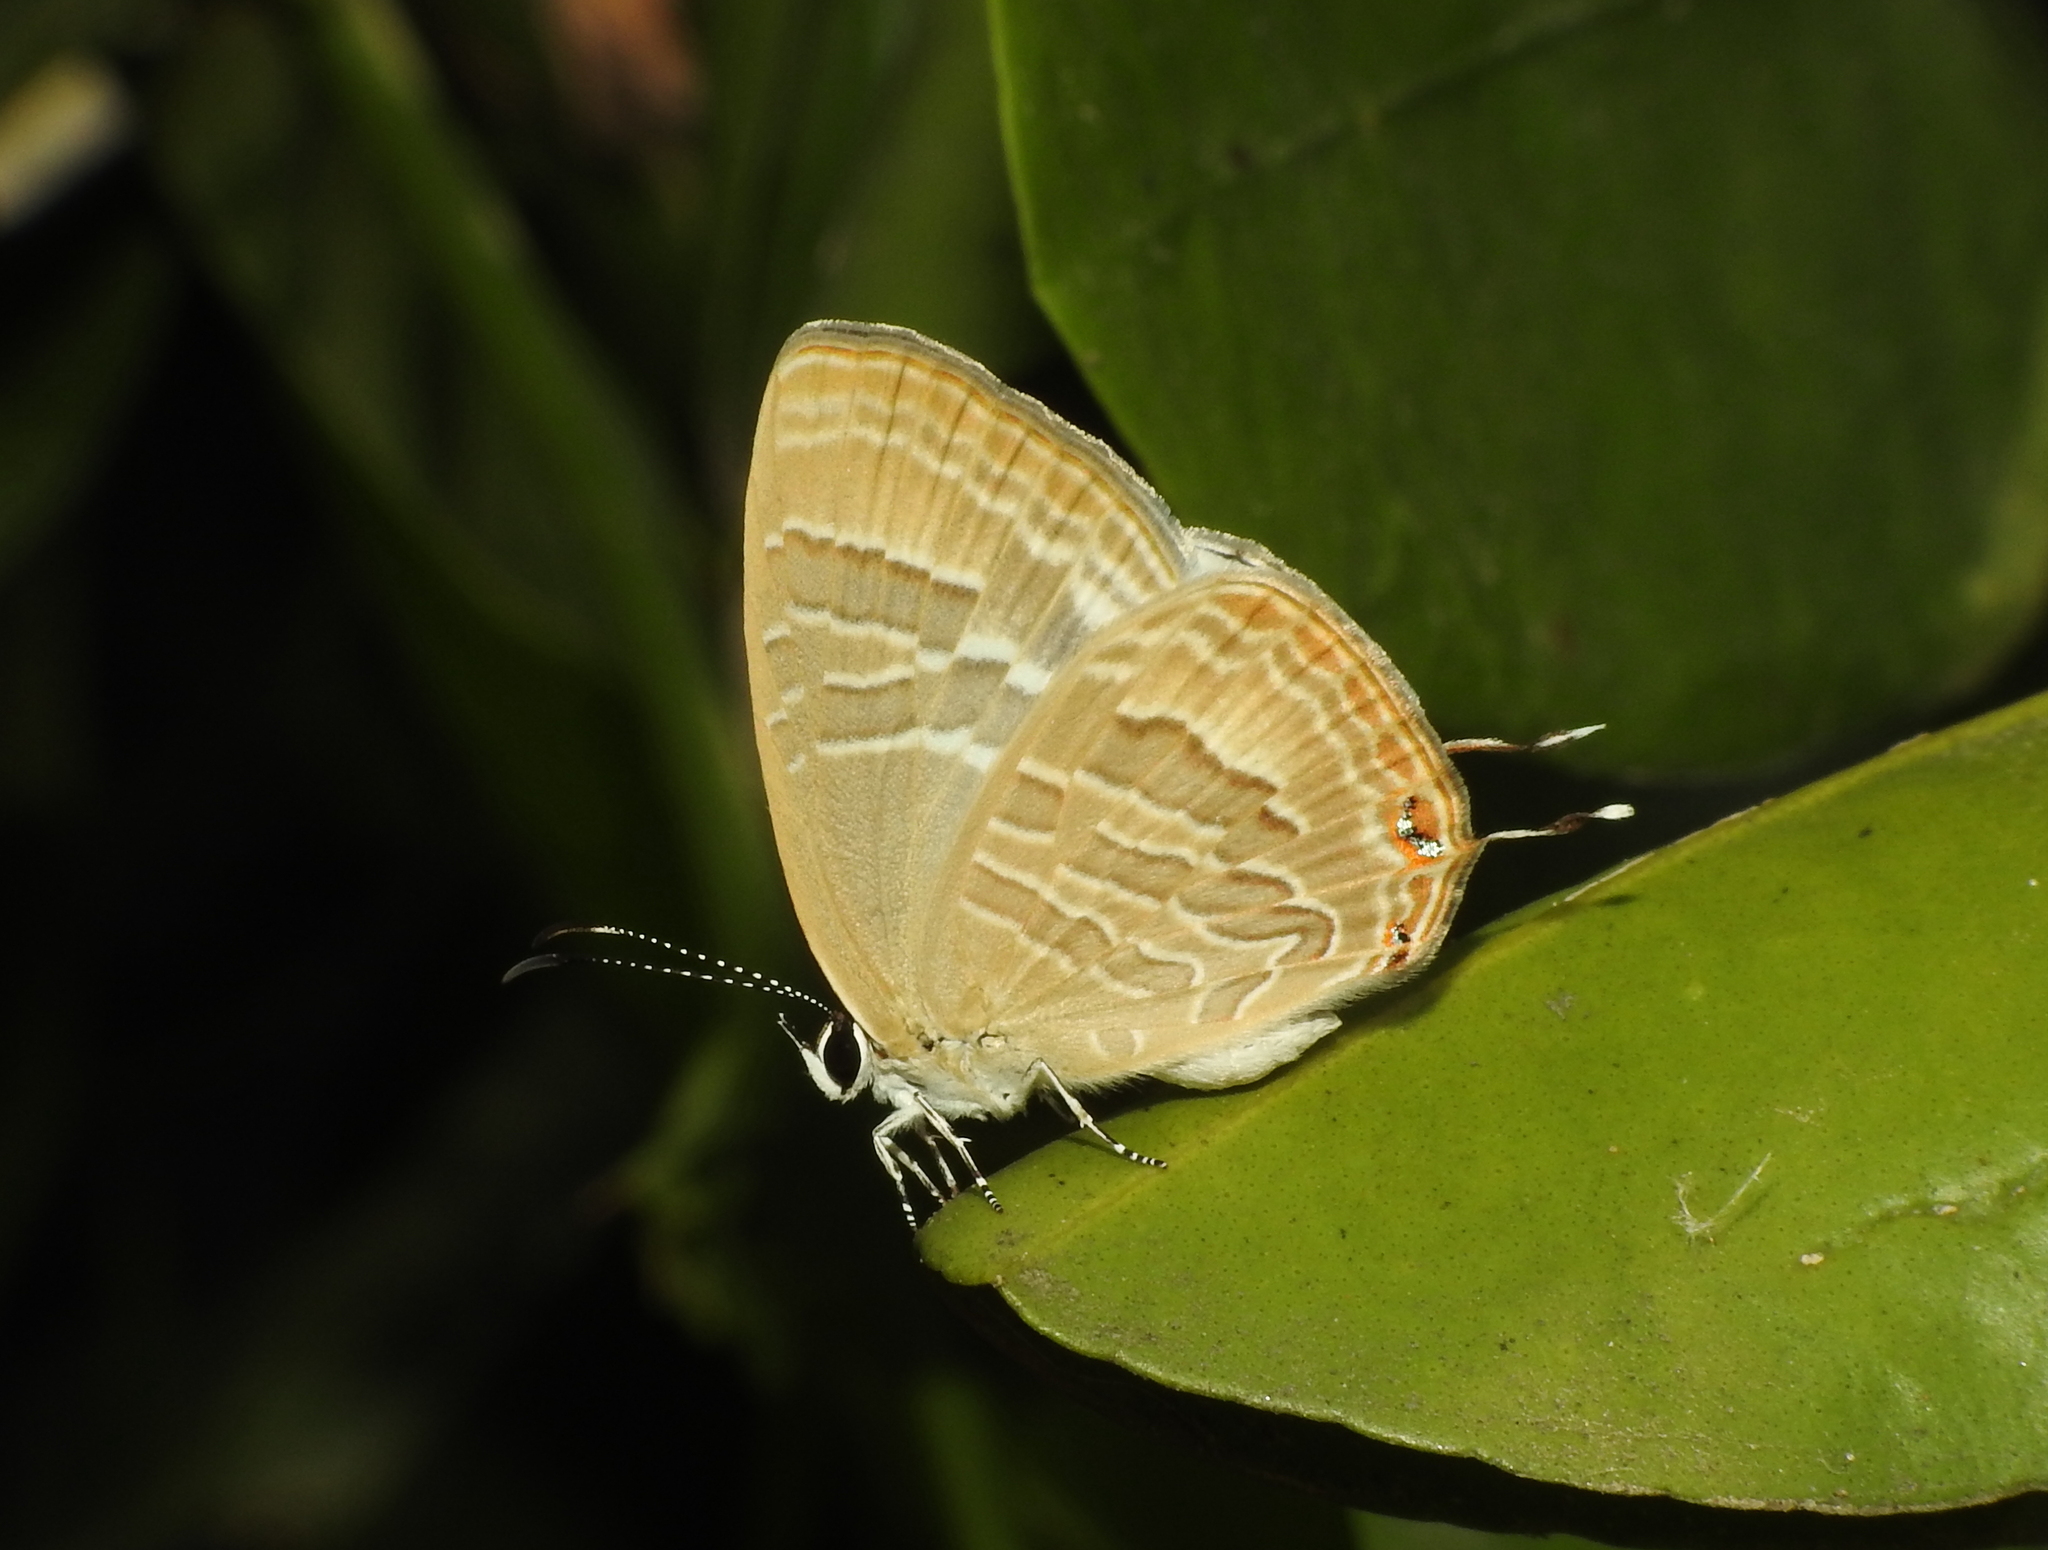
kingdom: Animalia
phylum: Arthropoda
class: Insecta
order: Lepidoptera
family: Lycaenidae
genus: Jamides
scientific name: Jamides celeno
